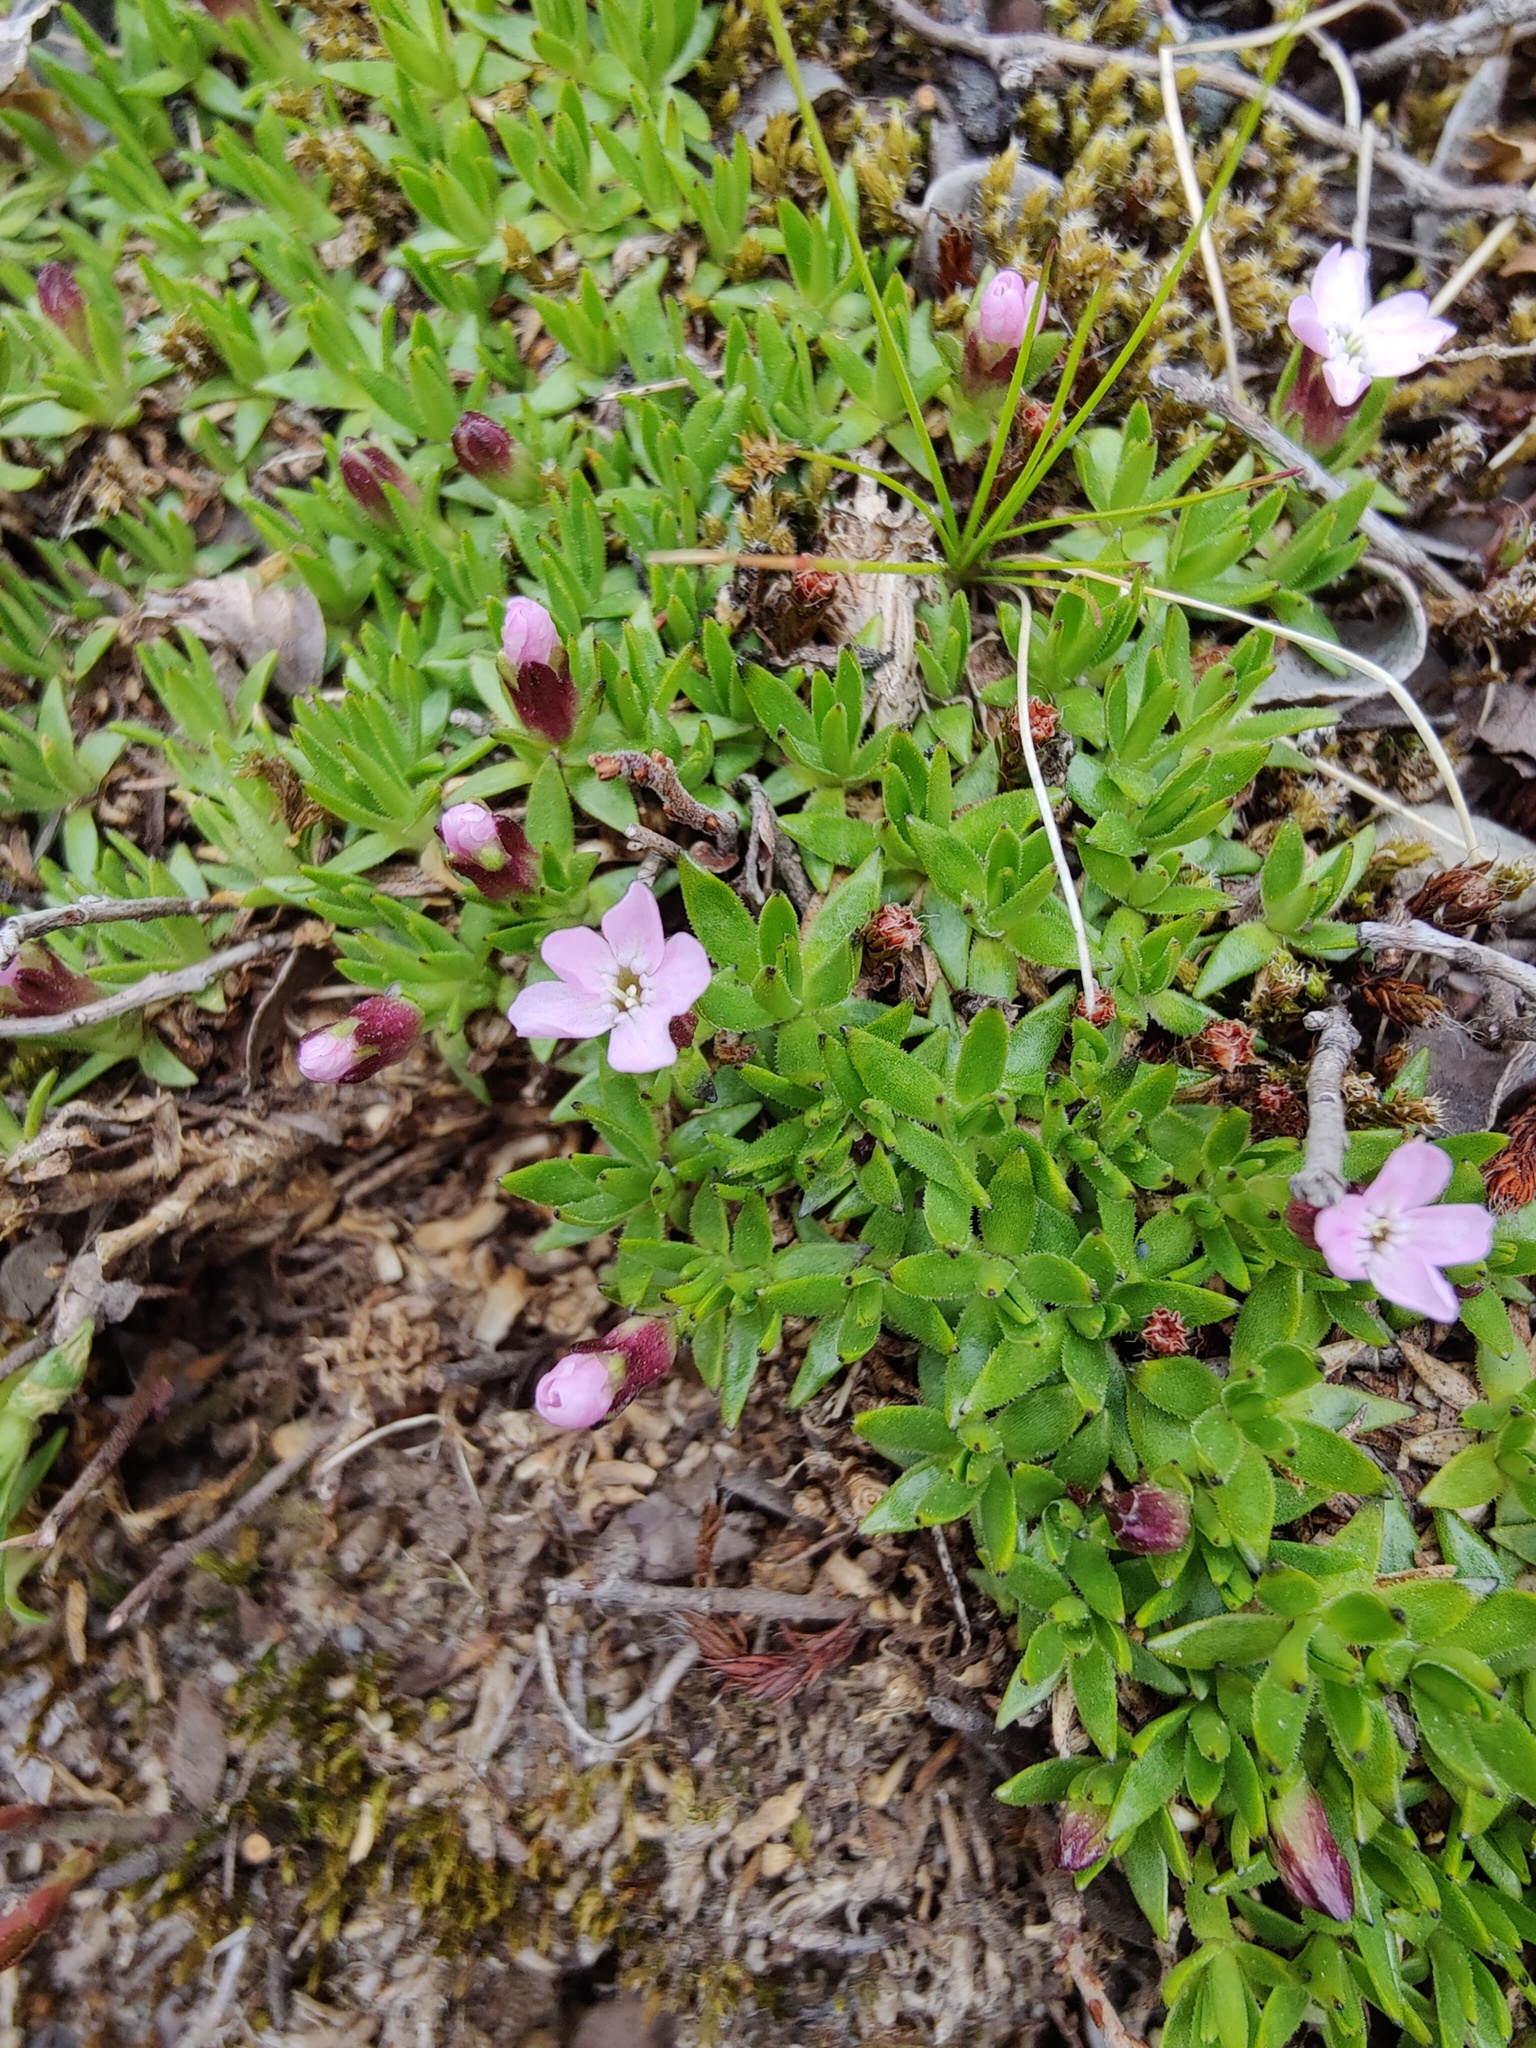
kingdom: Plantae
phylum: Tracheophyta
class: Magnoliopsida
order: Caryophyllales
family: Caryophyllaceae
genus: Silene
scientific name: Silene acaulis
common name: Moss campion
